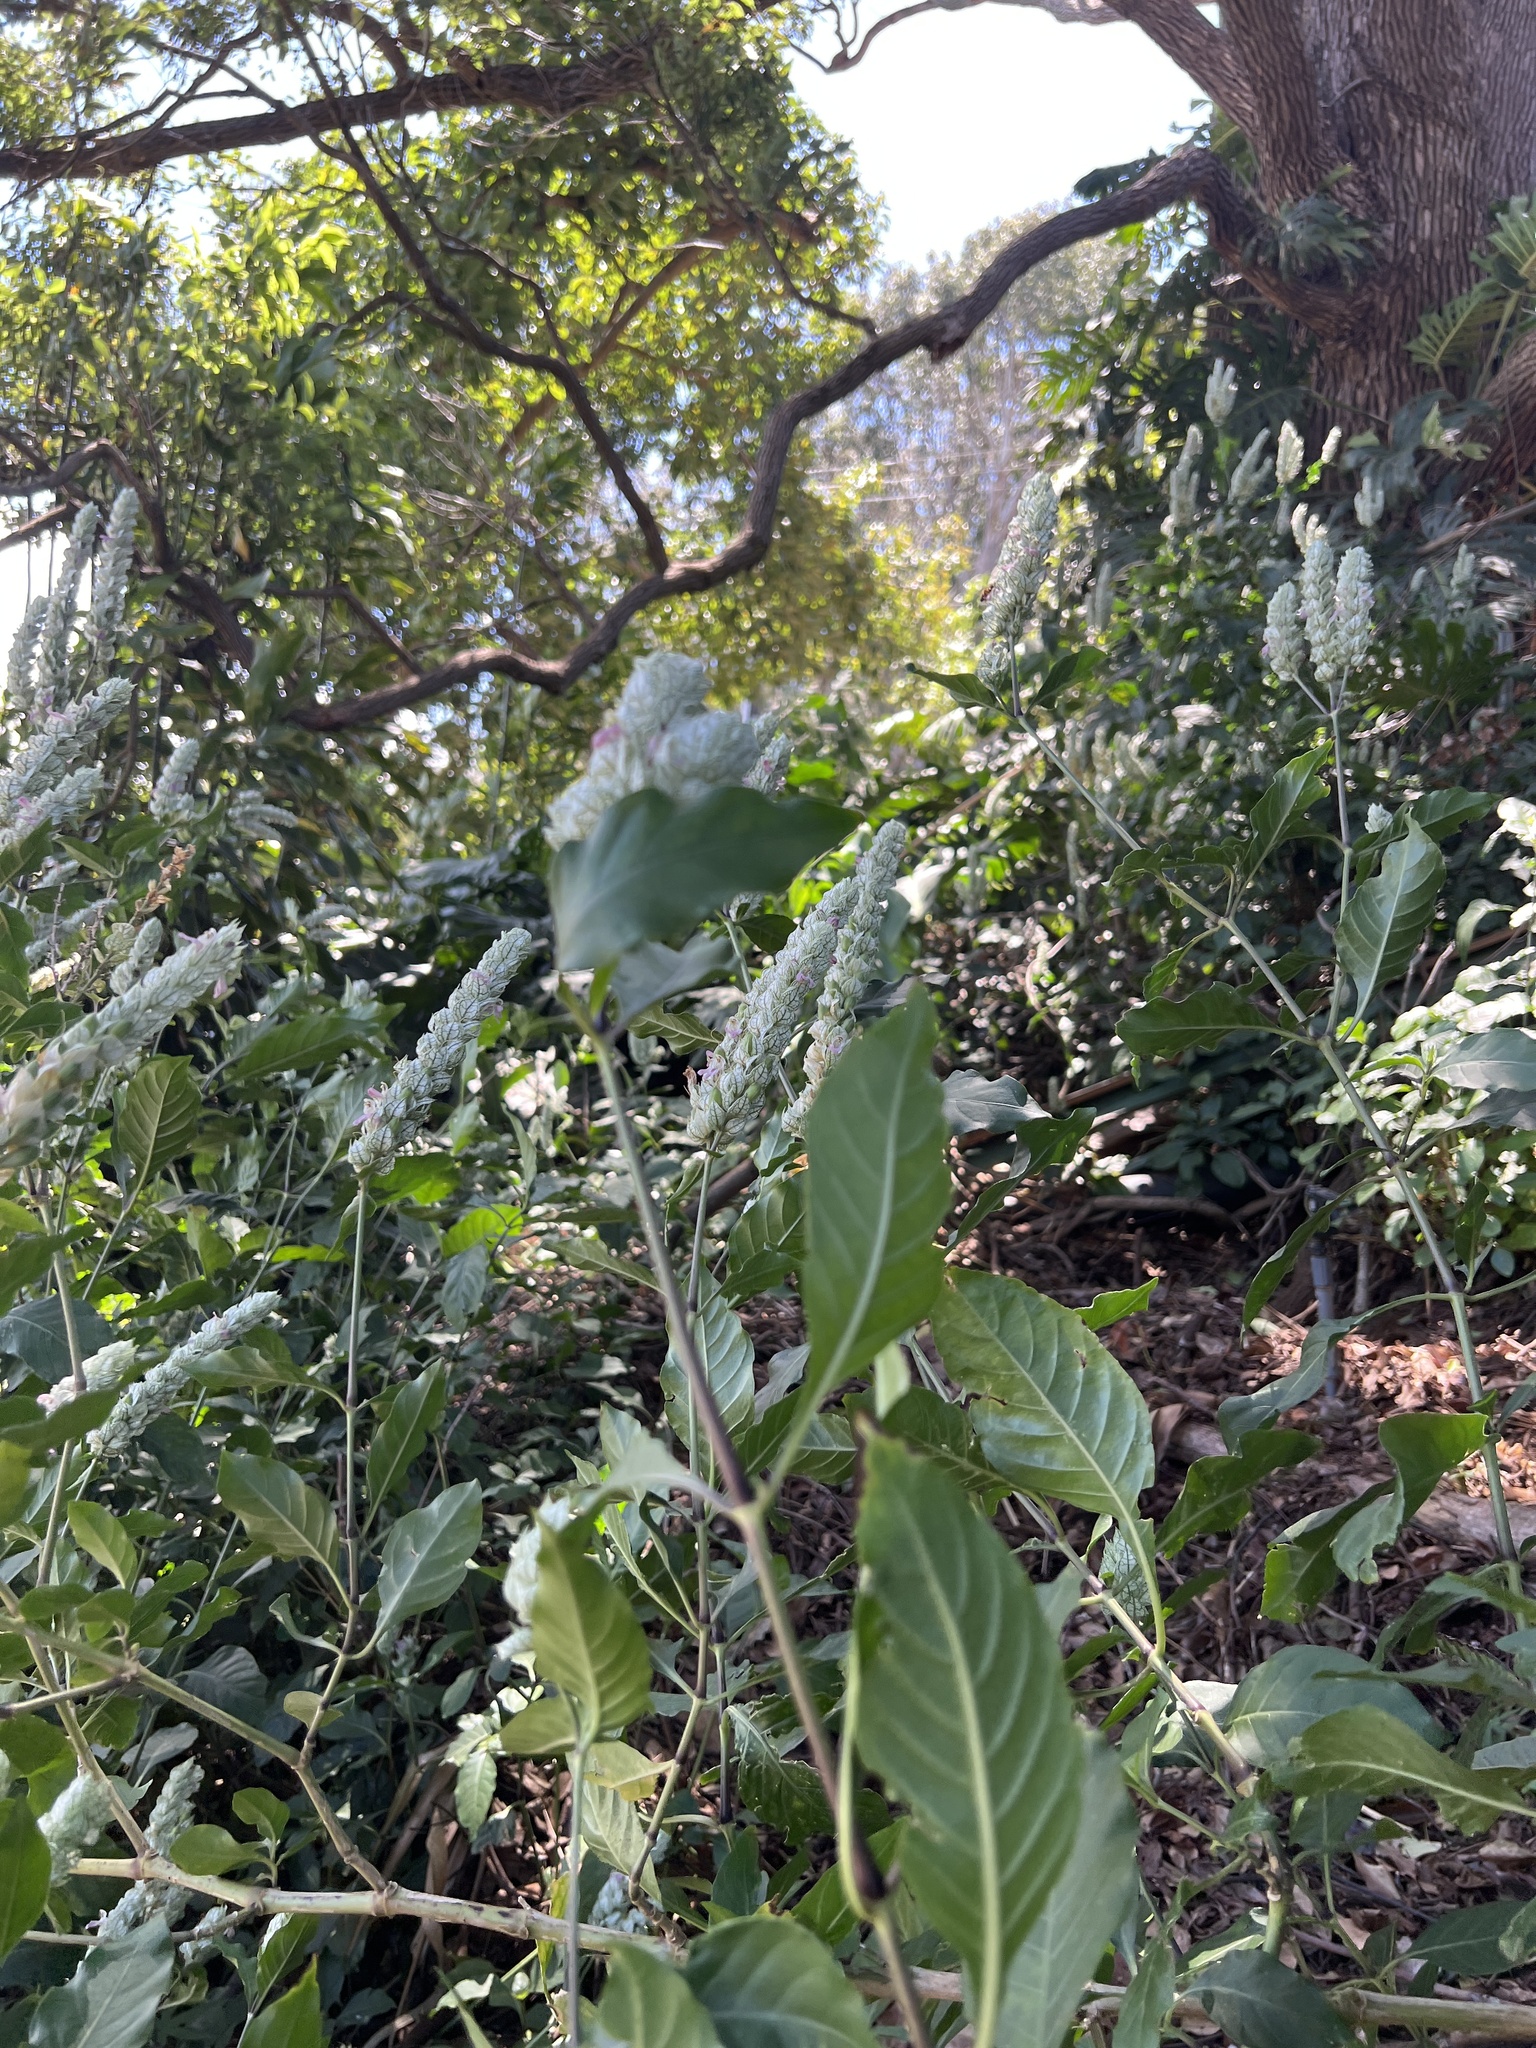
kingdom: Plantae
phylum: Tracheophyta
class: Magnoliopsida
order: Lamiales
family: Acanthaceae
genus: Justicia
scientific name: Justicia betonica
